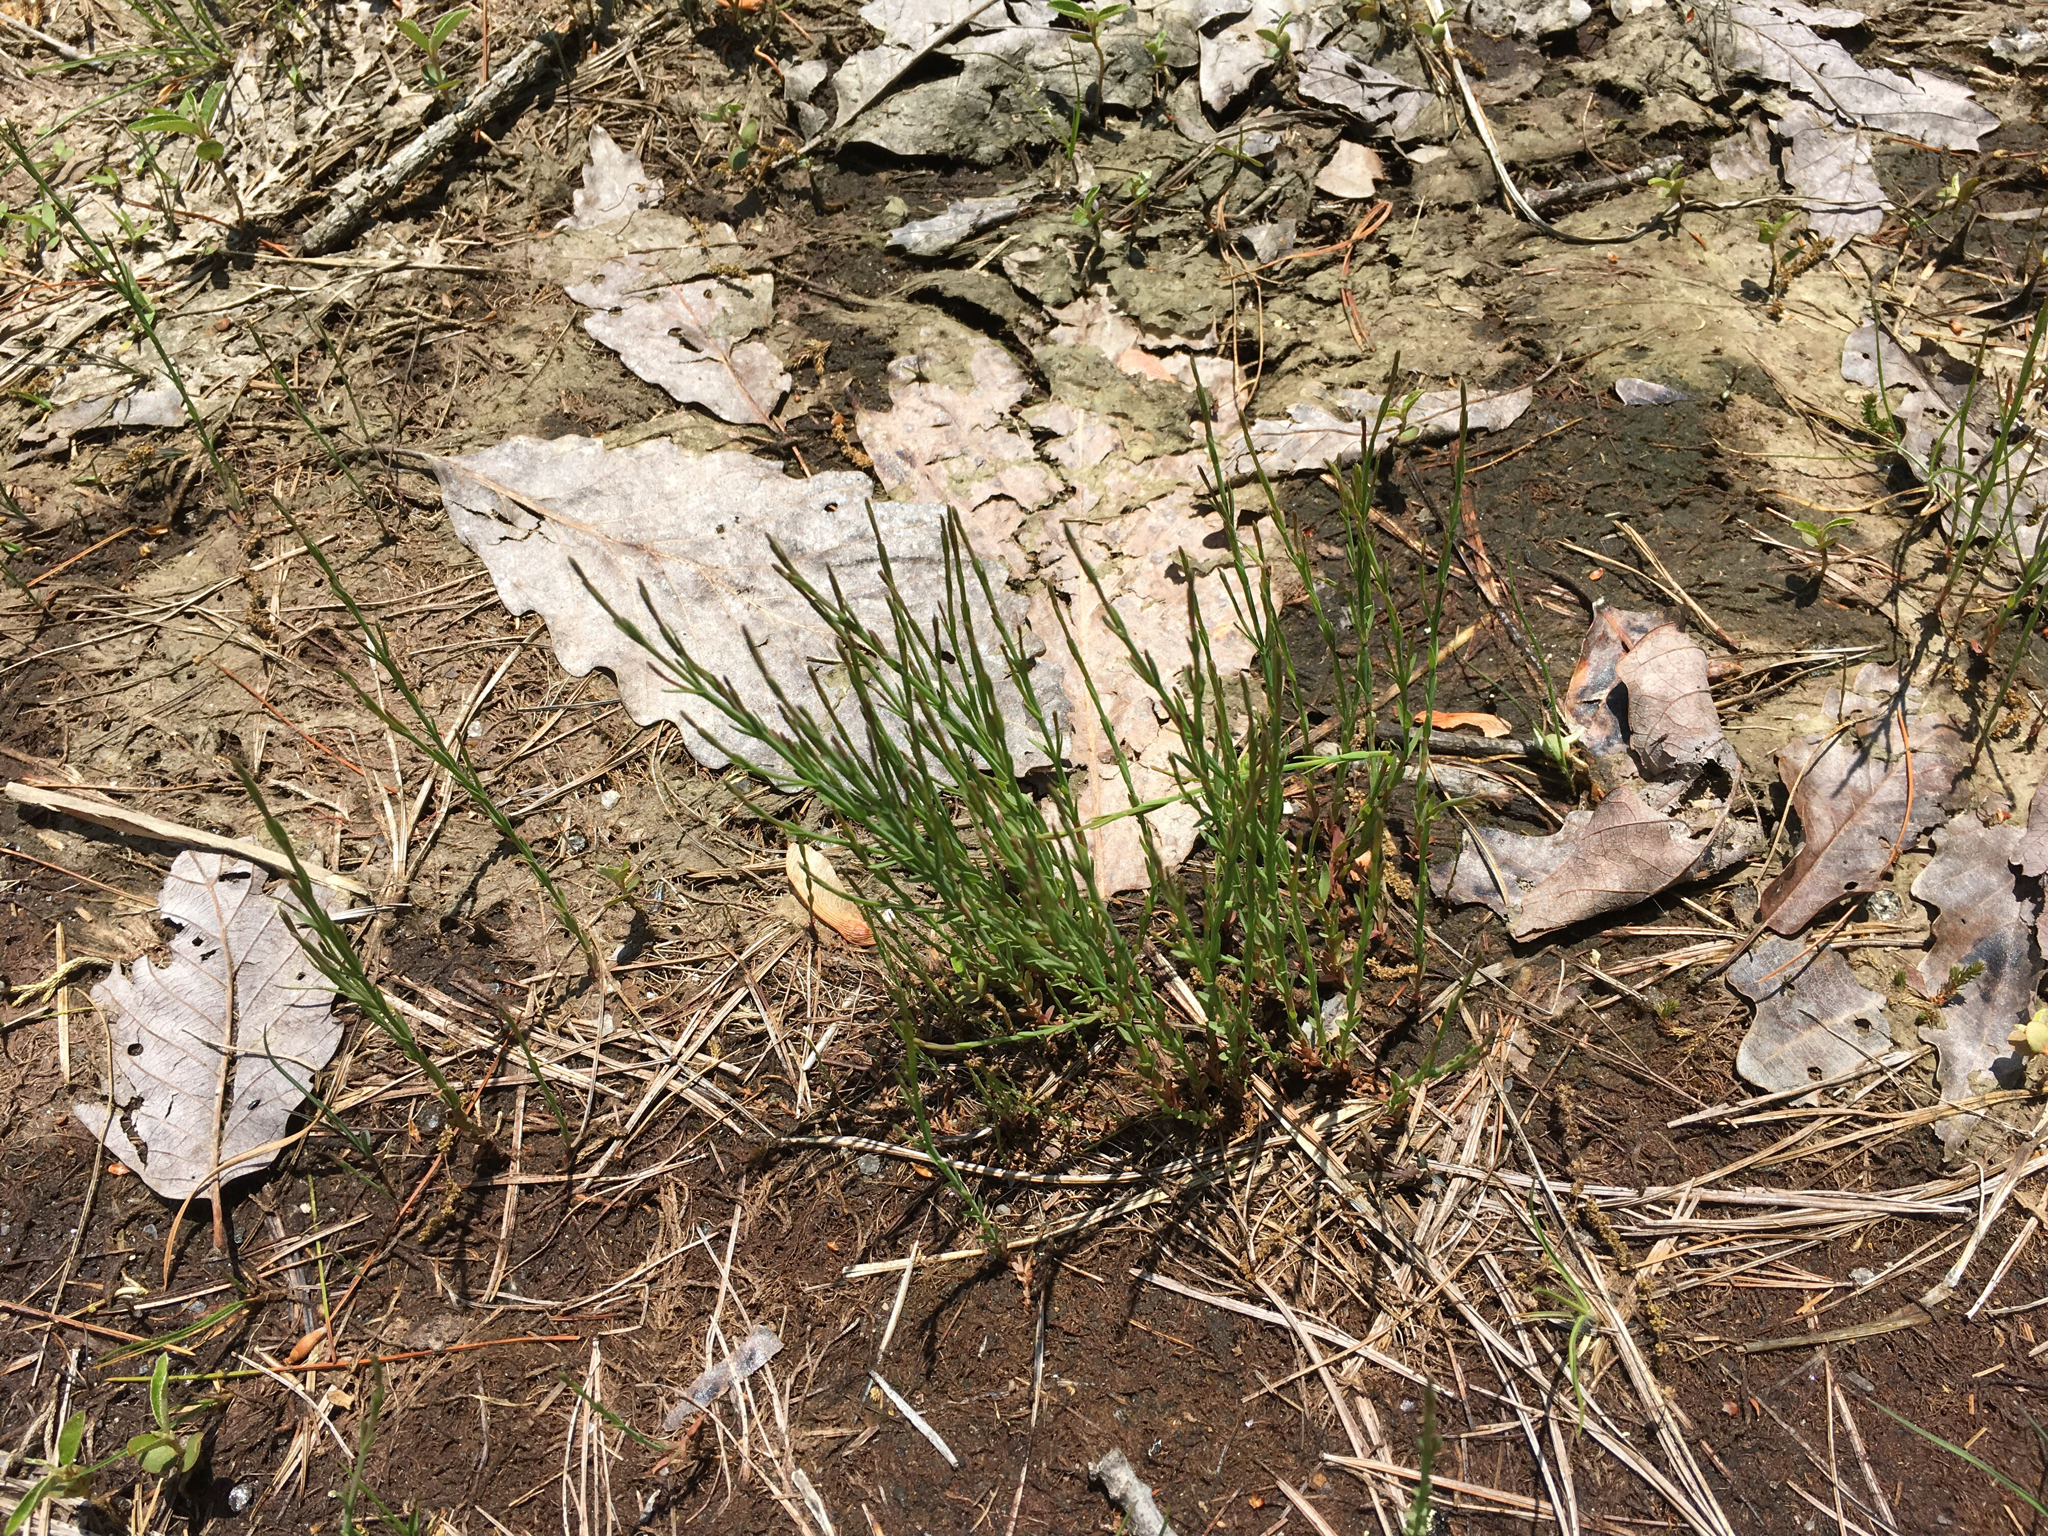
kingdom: Plantae
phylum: Tracheophyta
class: Magnoliopsida
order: Malpighiales
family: Hypericaceae
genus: Hypericum
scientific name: Hypericum gentianoides
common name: Gentian-leaved st. john's-wort
